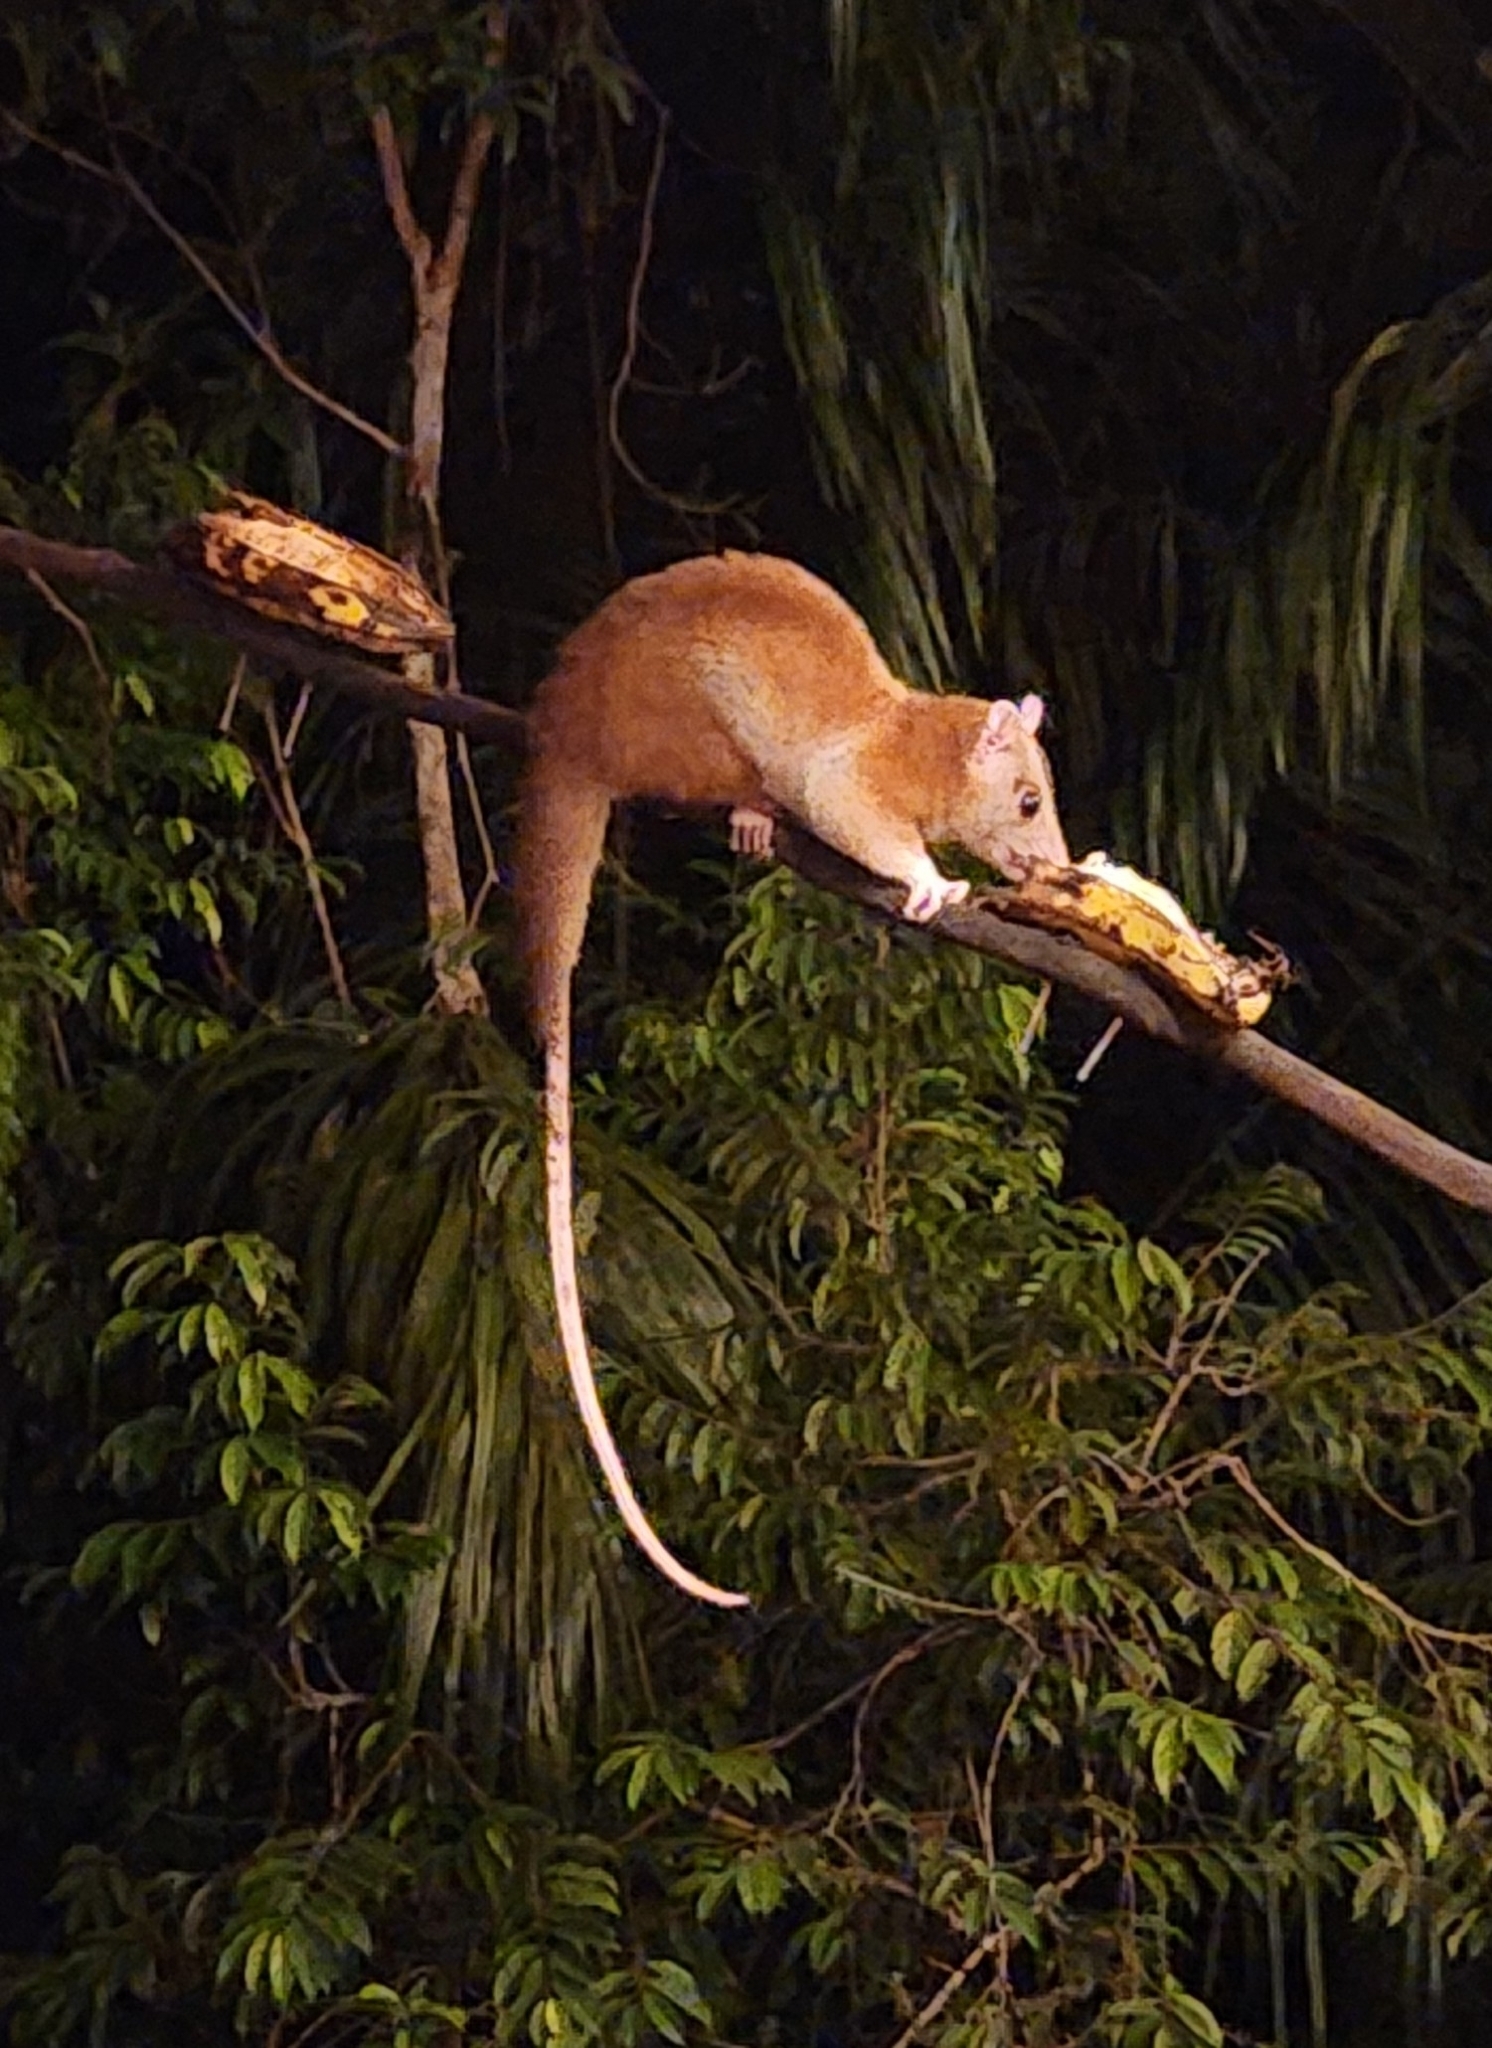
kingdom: Animalia
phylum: Chordata
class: Mammalia
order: Didelphimorphia
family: Didelphidae
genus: Caluromys
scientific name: Caluromys derbianus
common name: Derby's woolly opossum
